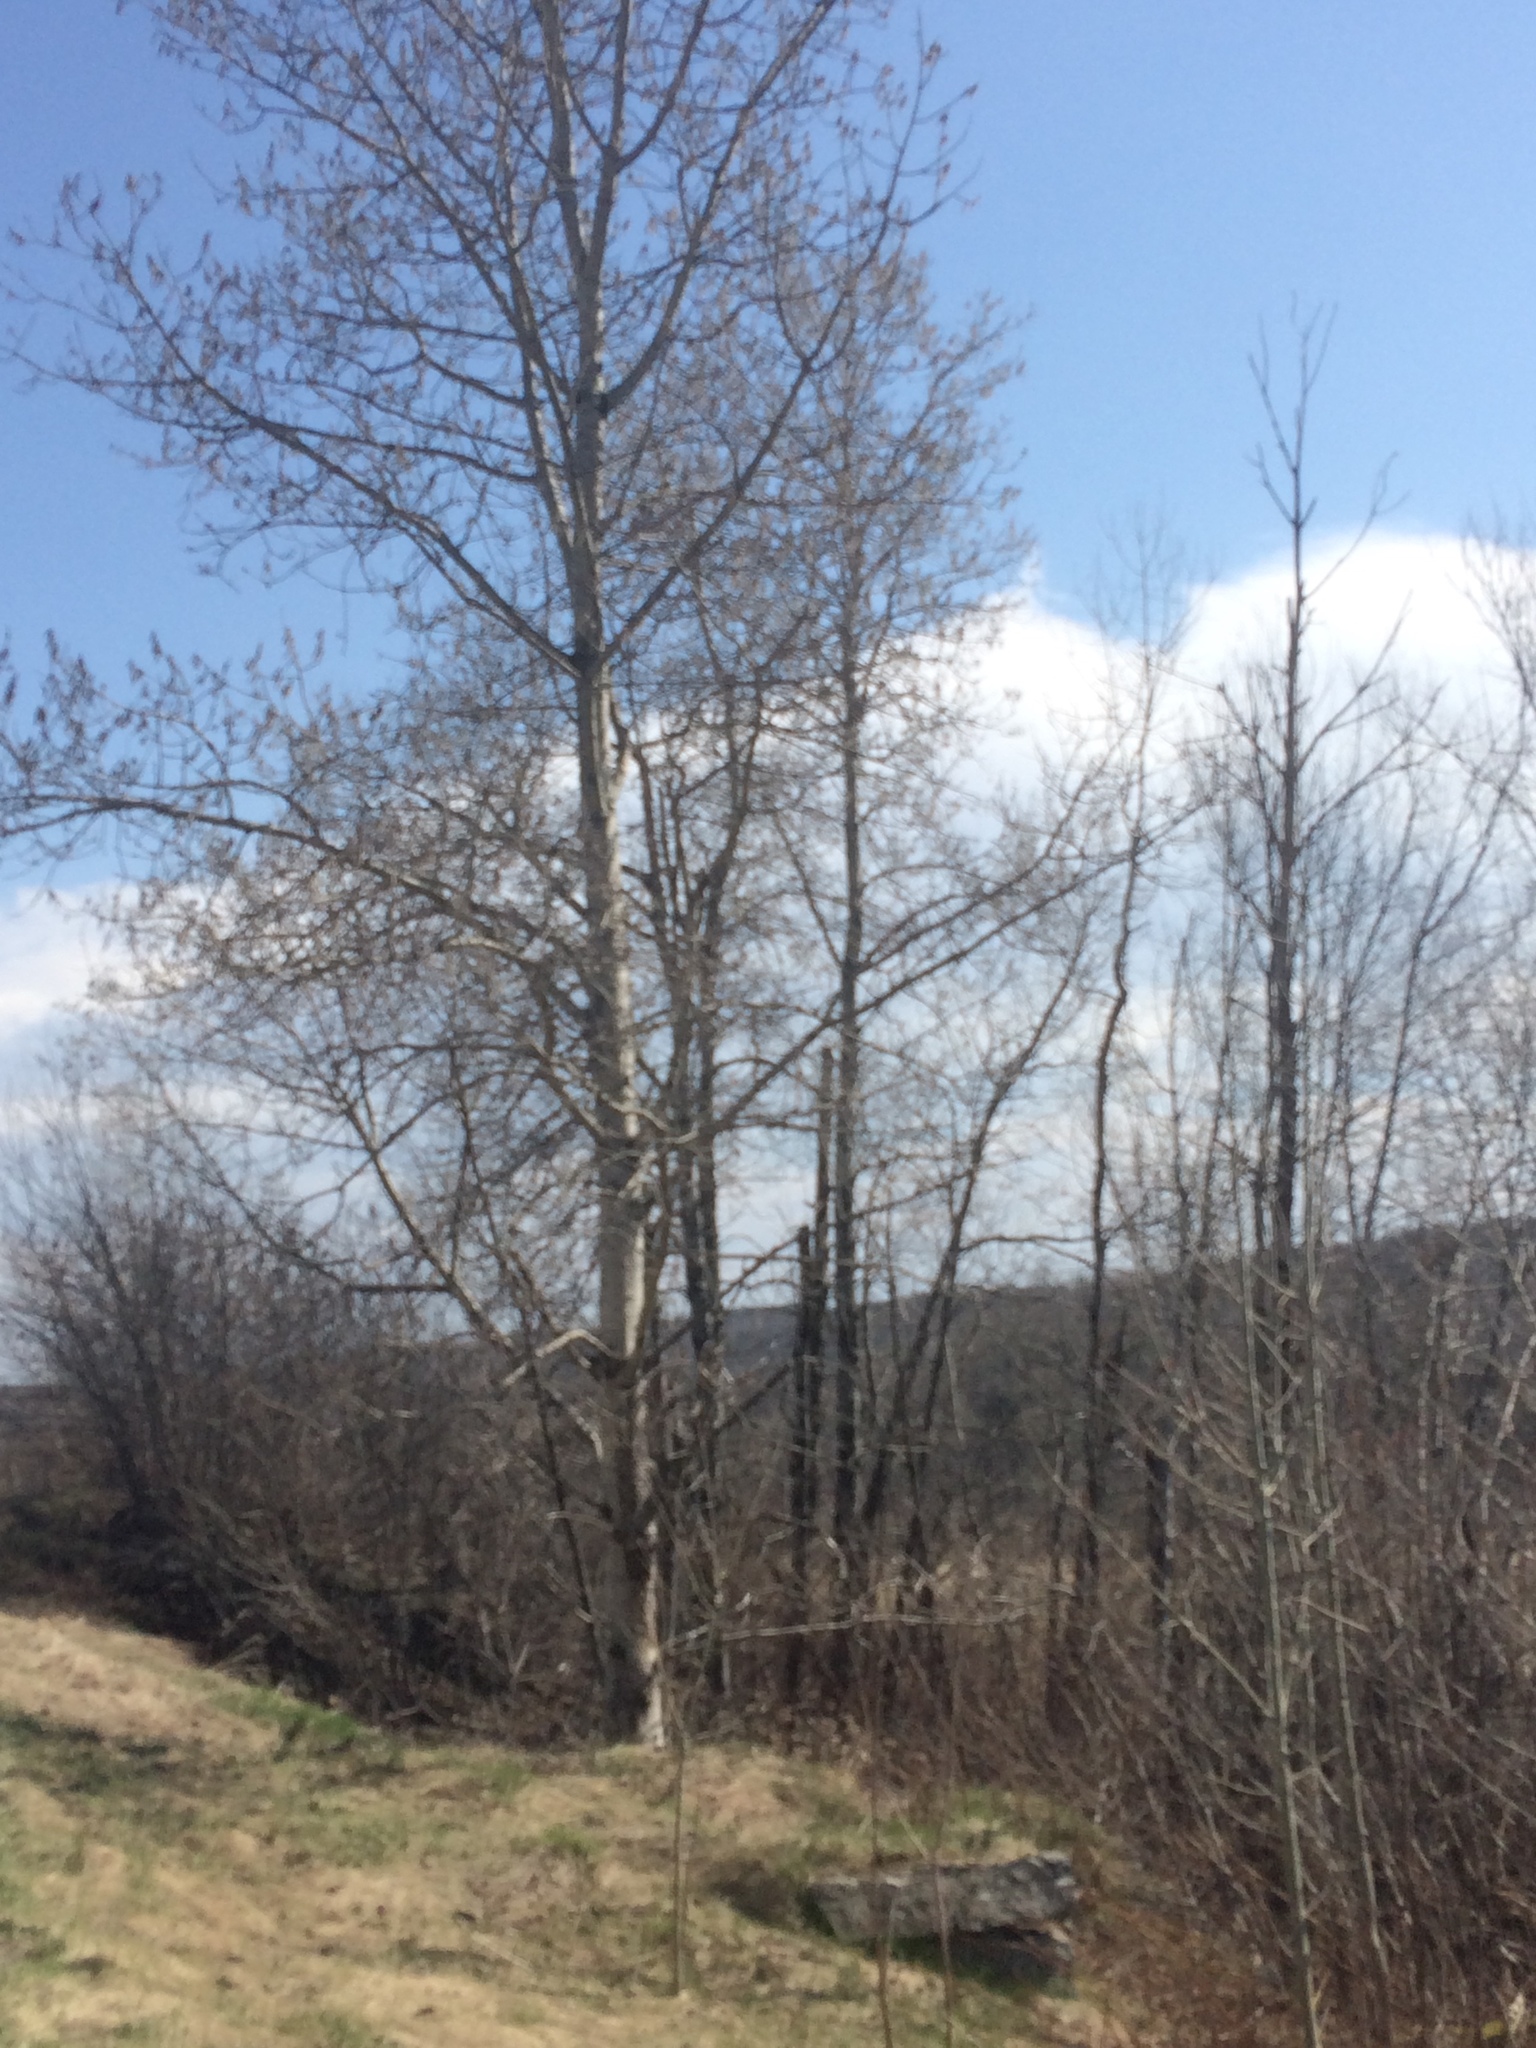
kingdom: Plantae
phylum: Tracheophyta
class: Magnoliopsida
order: Malpighiales
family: Salicaceae
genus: Populus
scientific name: Populus tremuloides
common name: Quaking aspen
